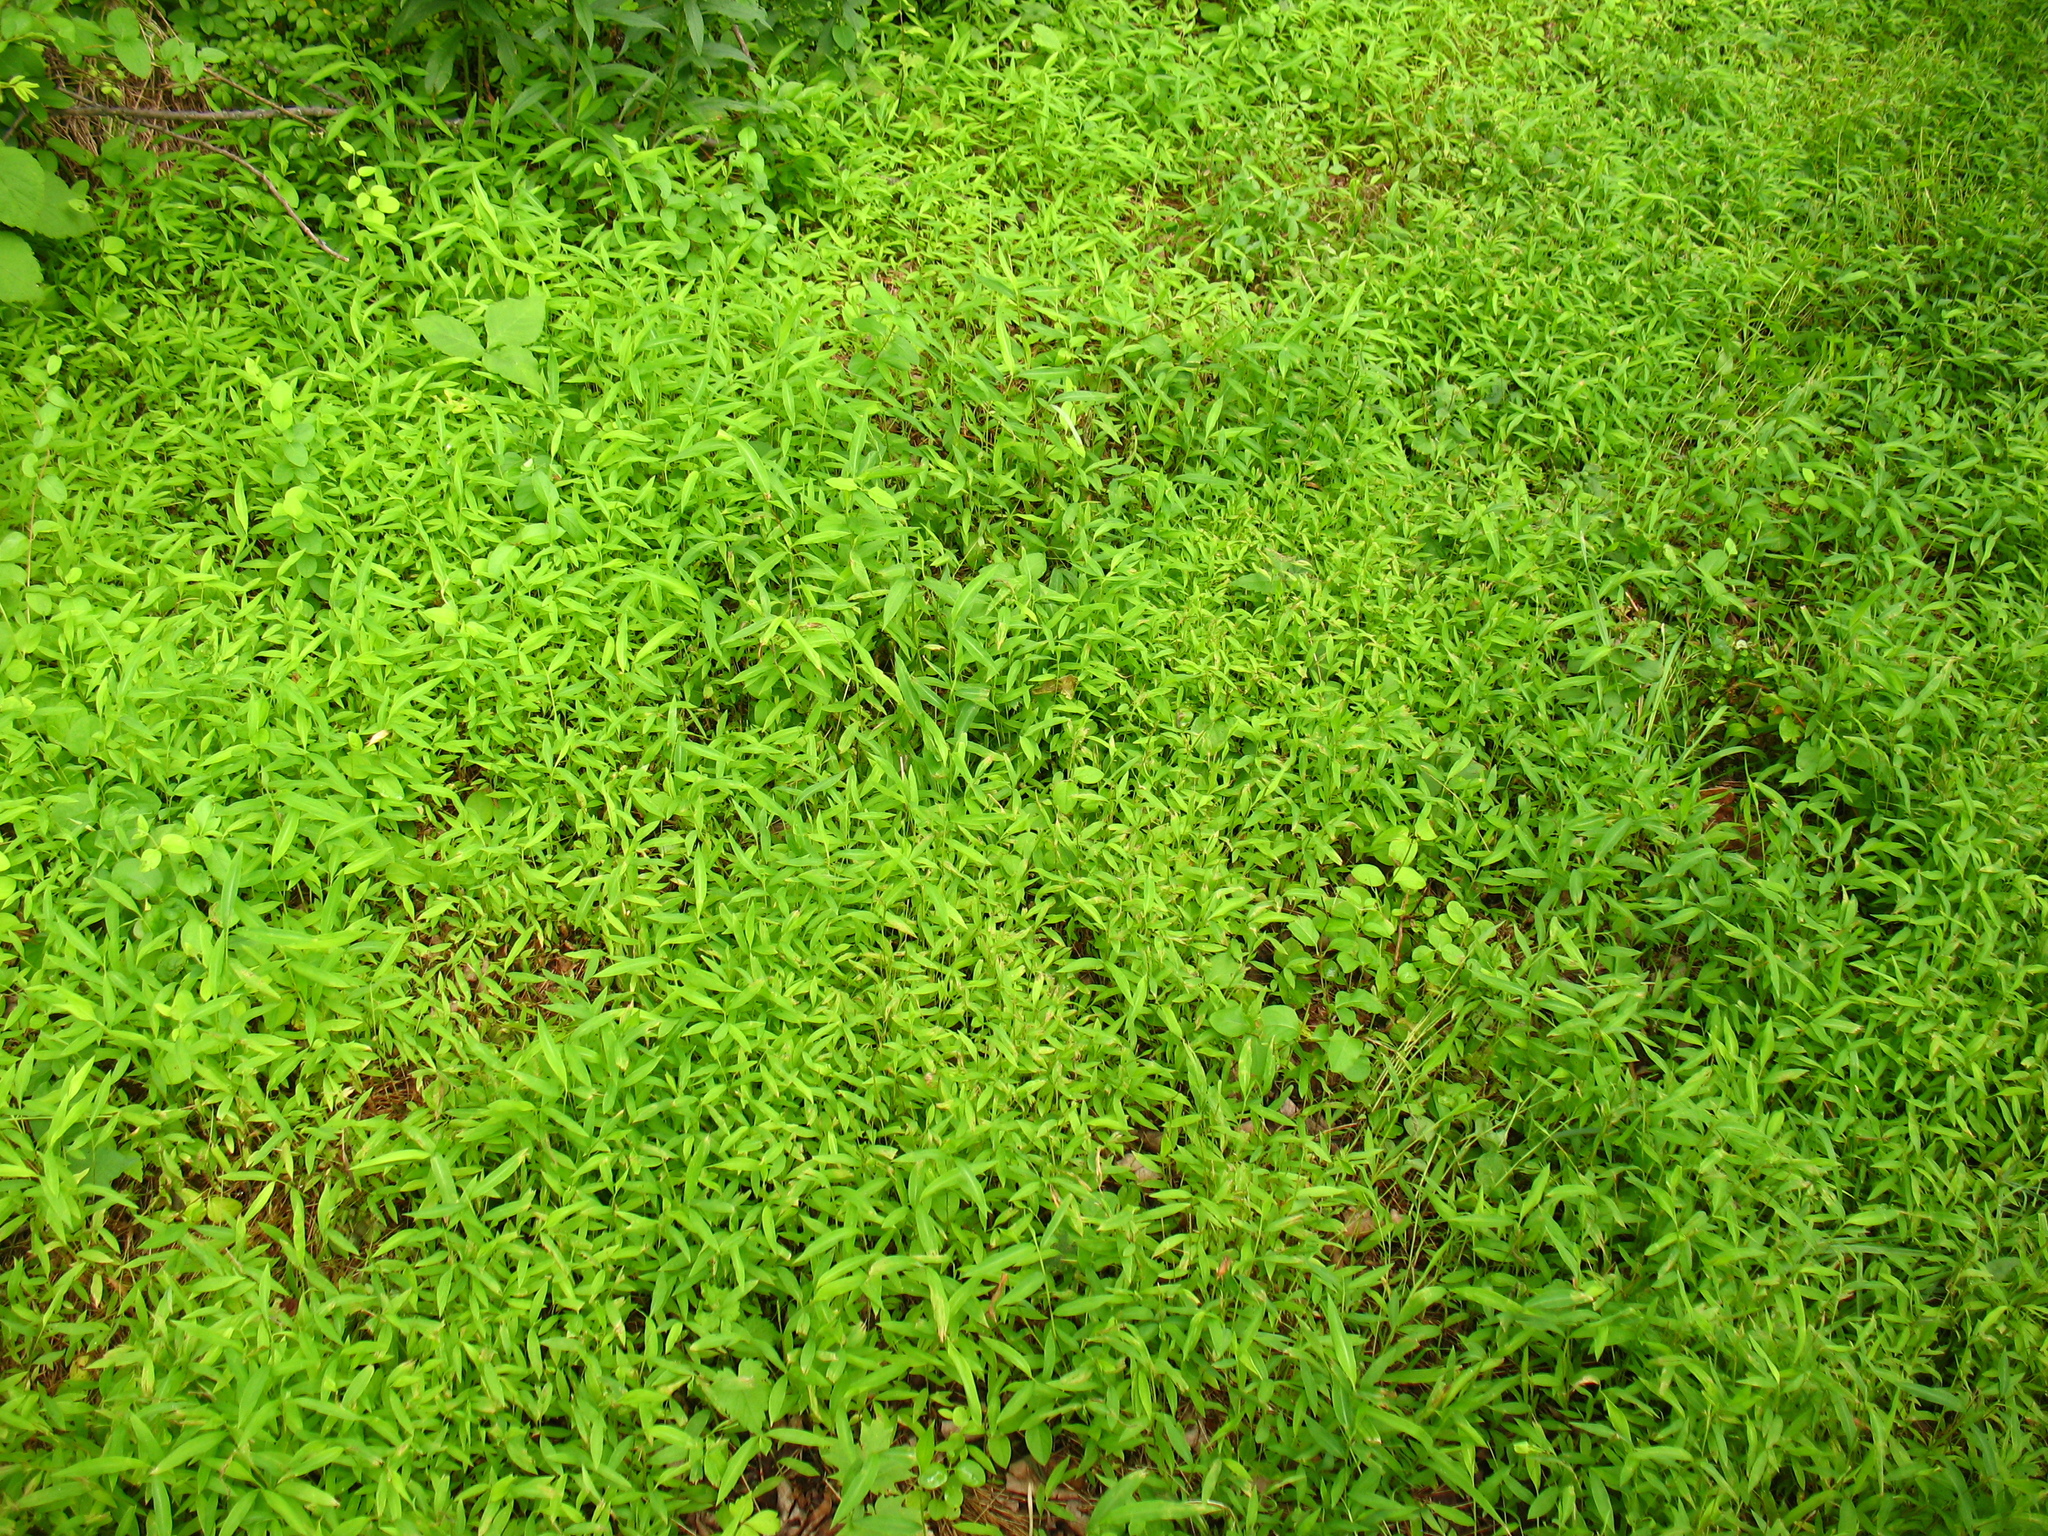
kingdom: Plantae
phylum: Tracheophyta
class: Liliopsida
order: Poales
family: Poaceae
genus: Microstegium
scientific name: Microstegium vimineum
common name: Japanese stiltgrass
